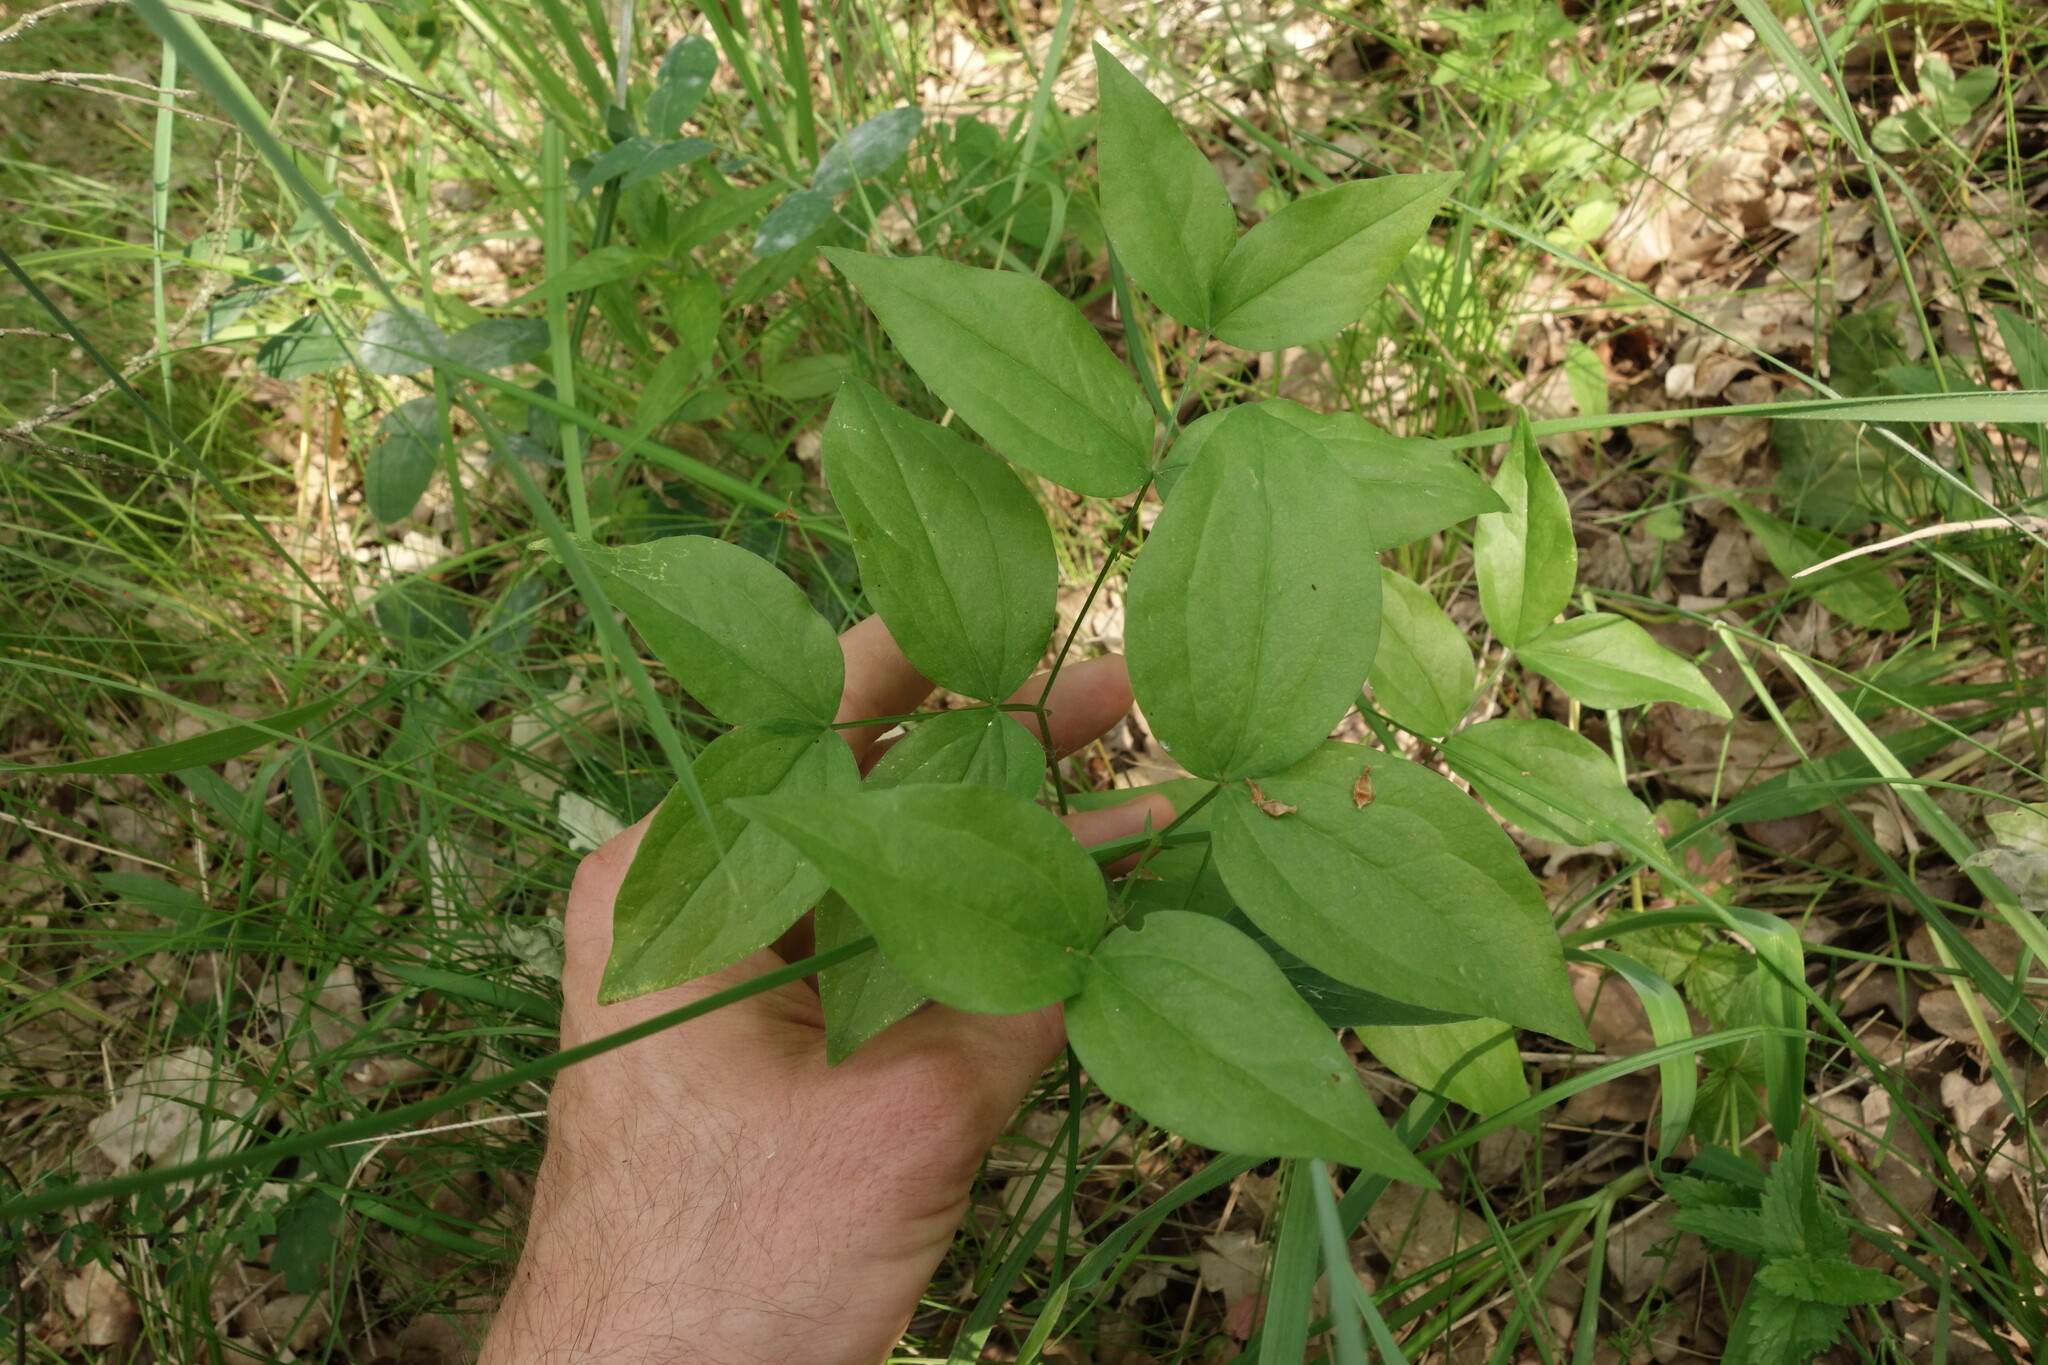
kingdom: Plantae
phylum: Tracheophyta
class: Magnoliopsida
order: Fabales
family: Fabaceae
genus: Lathyrus
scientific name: Lathyrus vernus
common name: Spring pea
